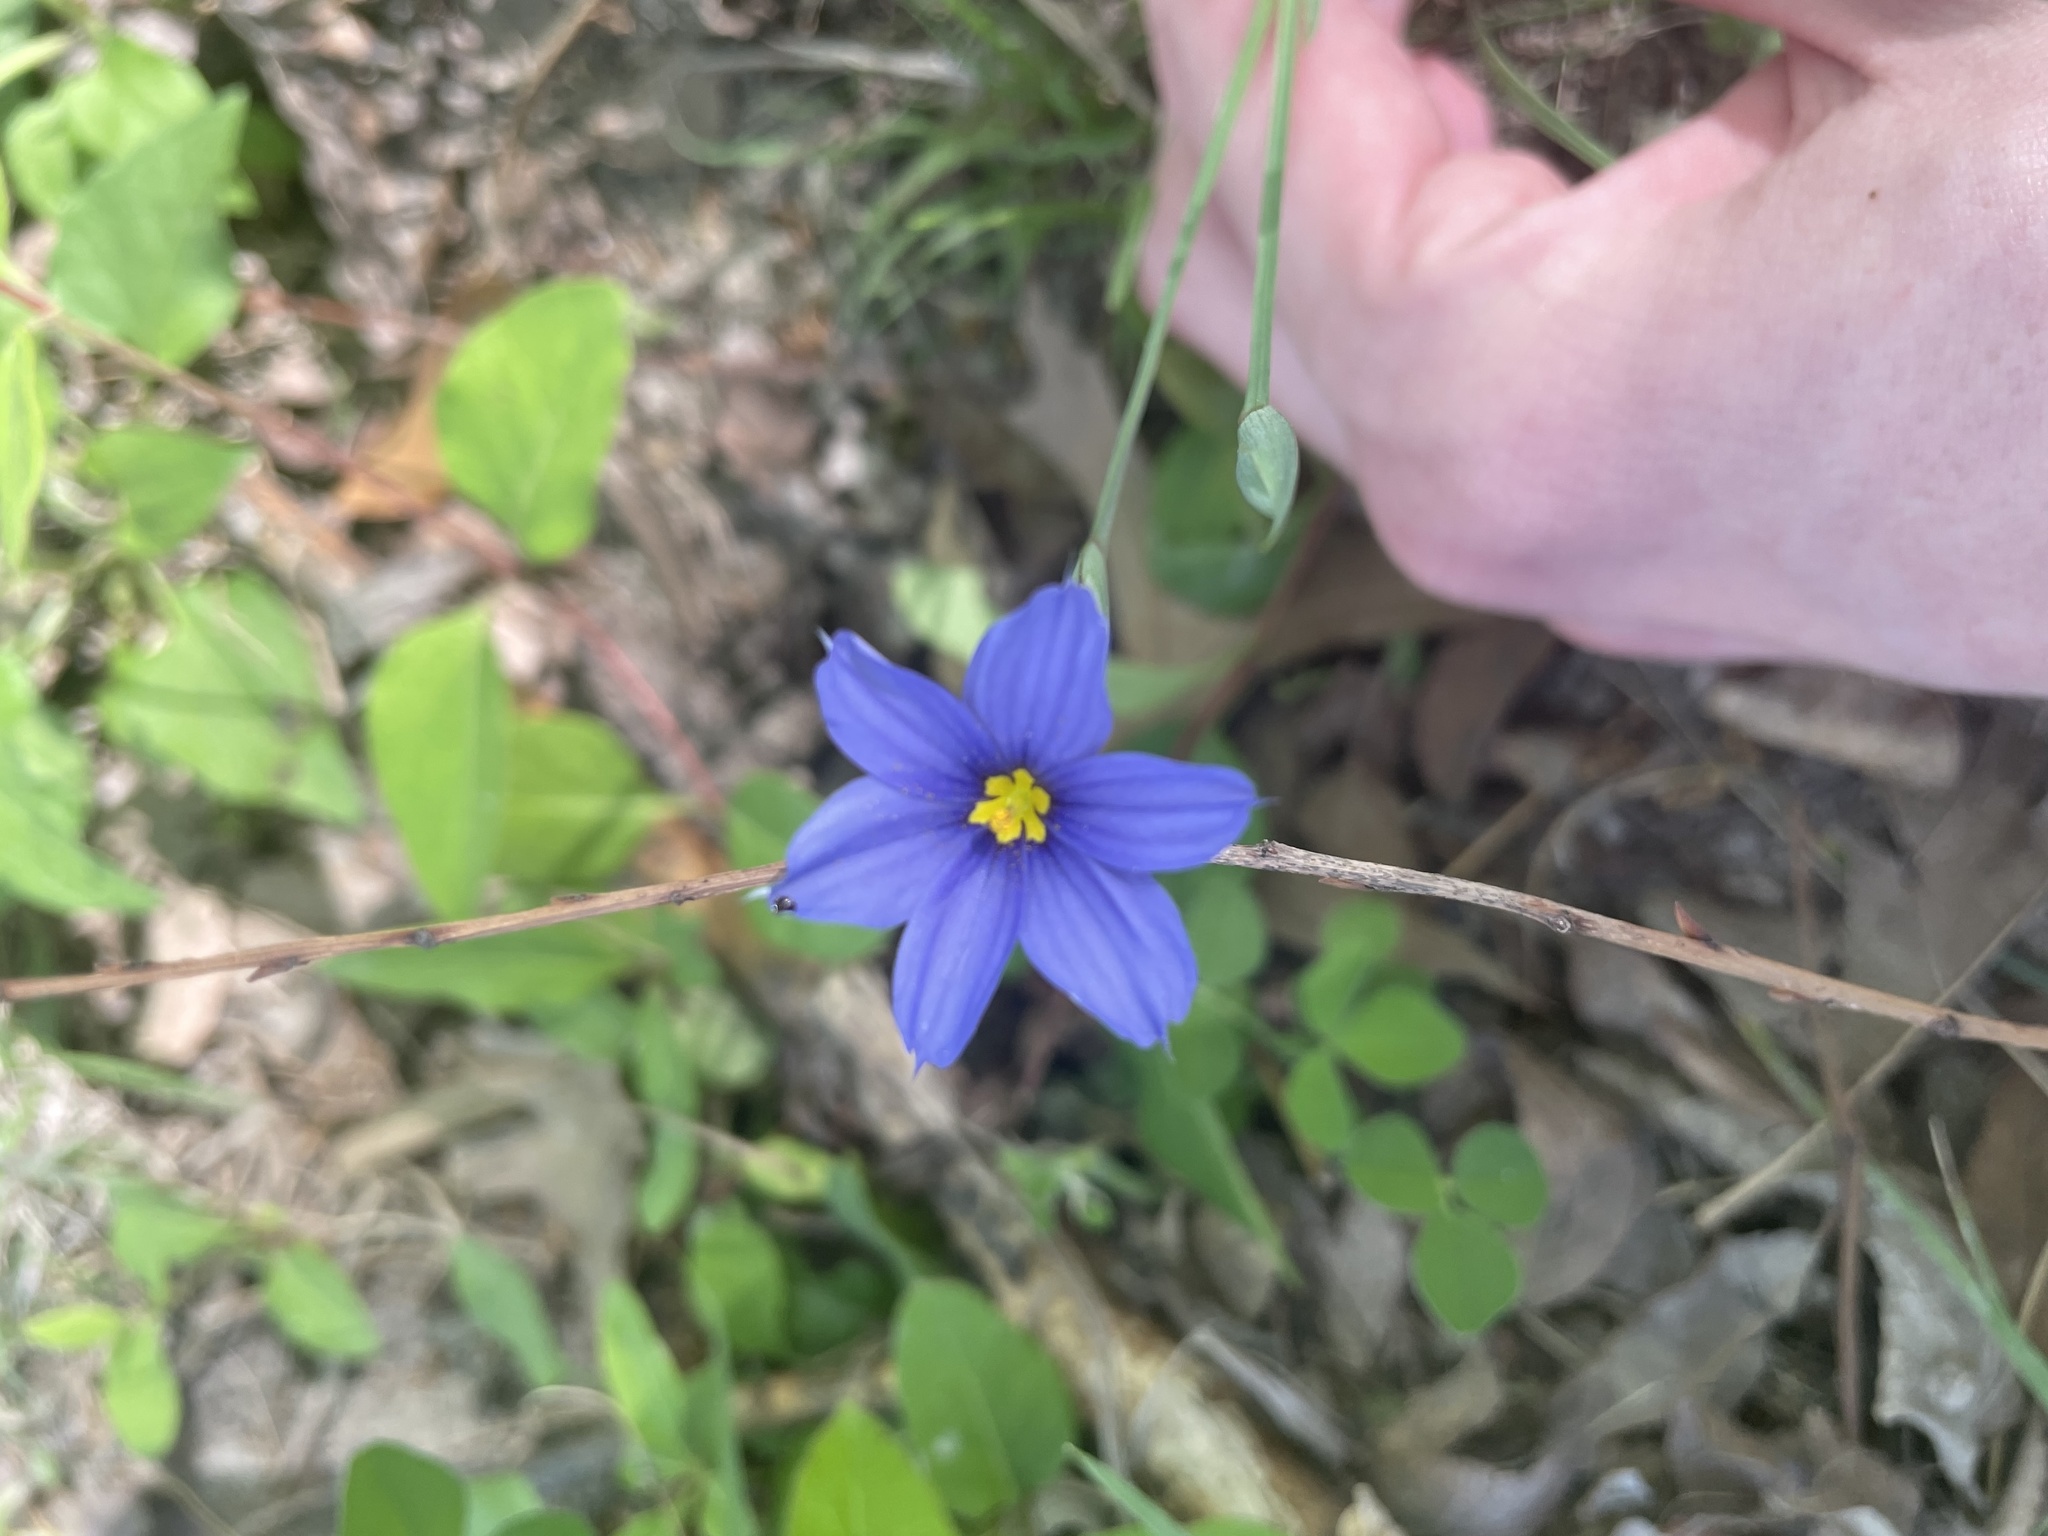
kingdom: Plantae
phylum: Tracheophyta
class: Liliopsida
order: Asparagales
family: Iridaceae
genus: Sisyrinchium
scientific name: Sisyrinchium pruinosum
